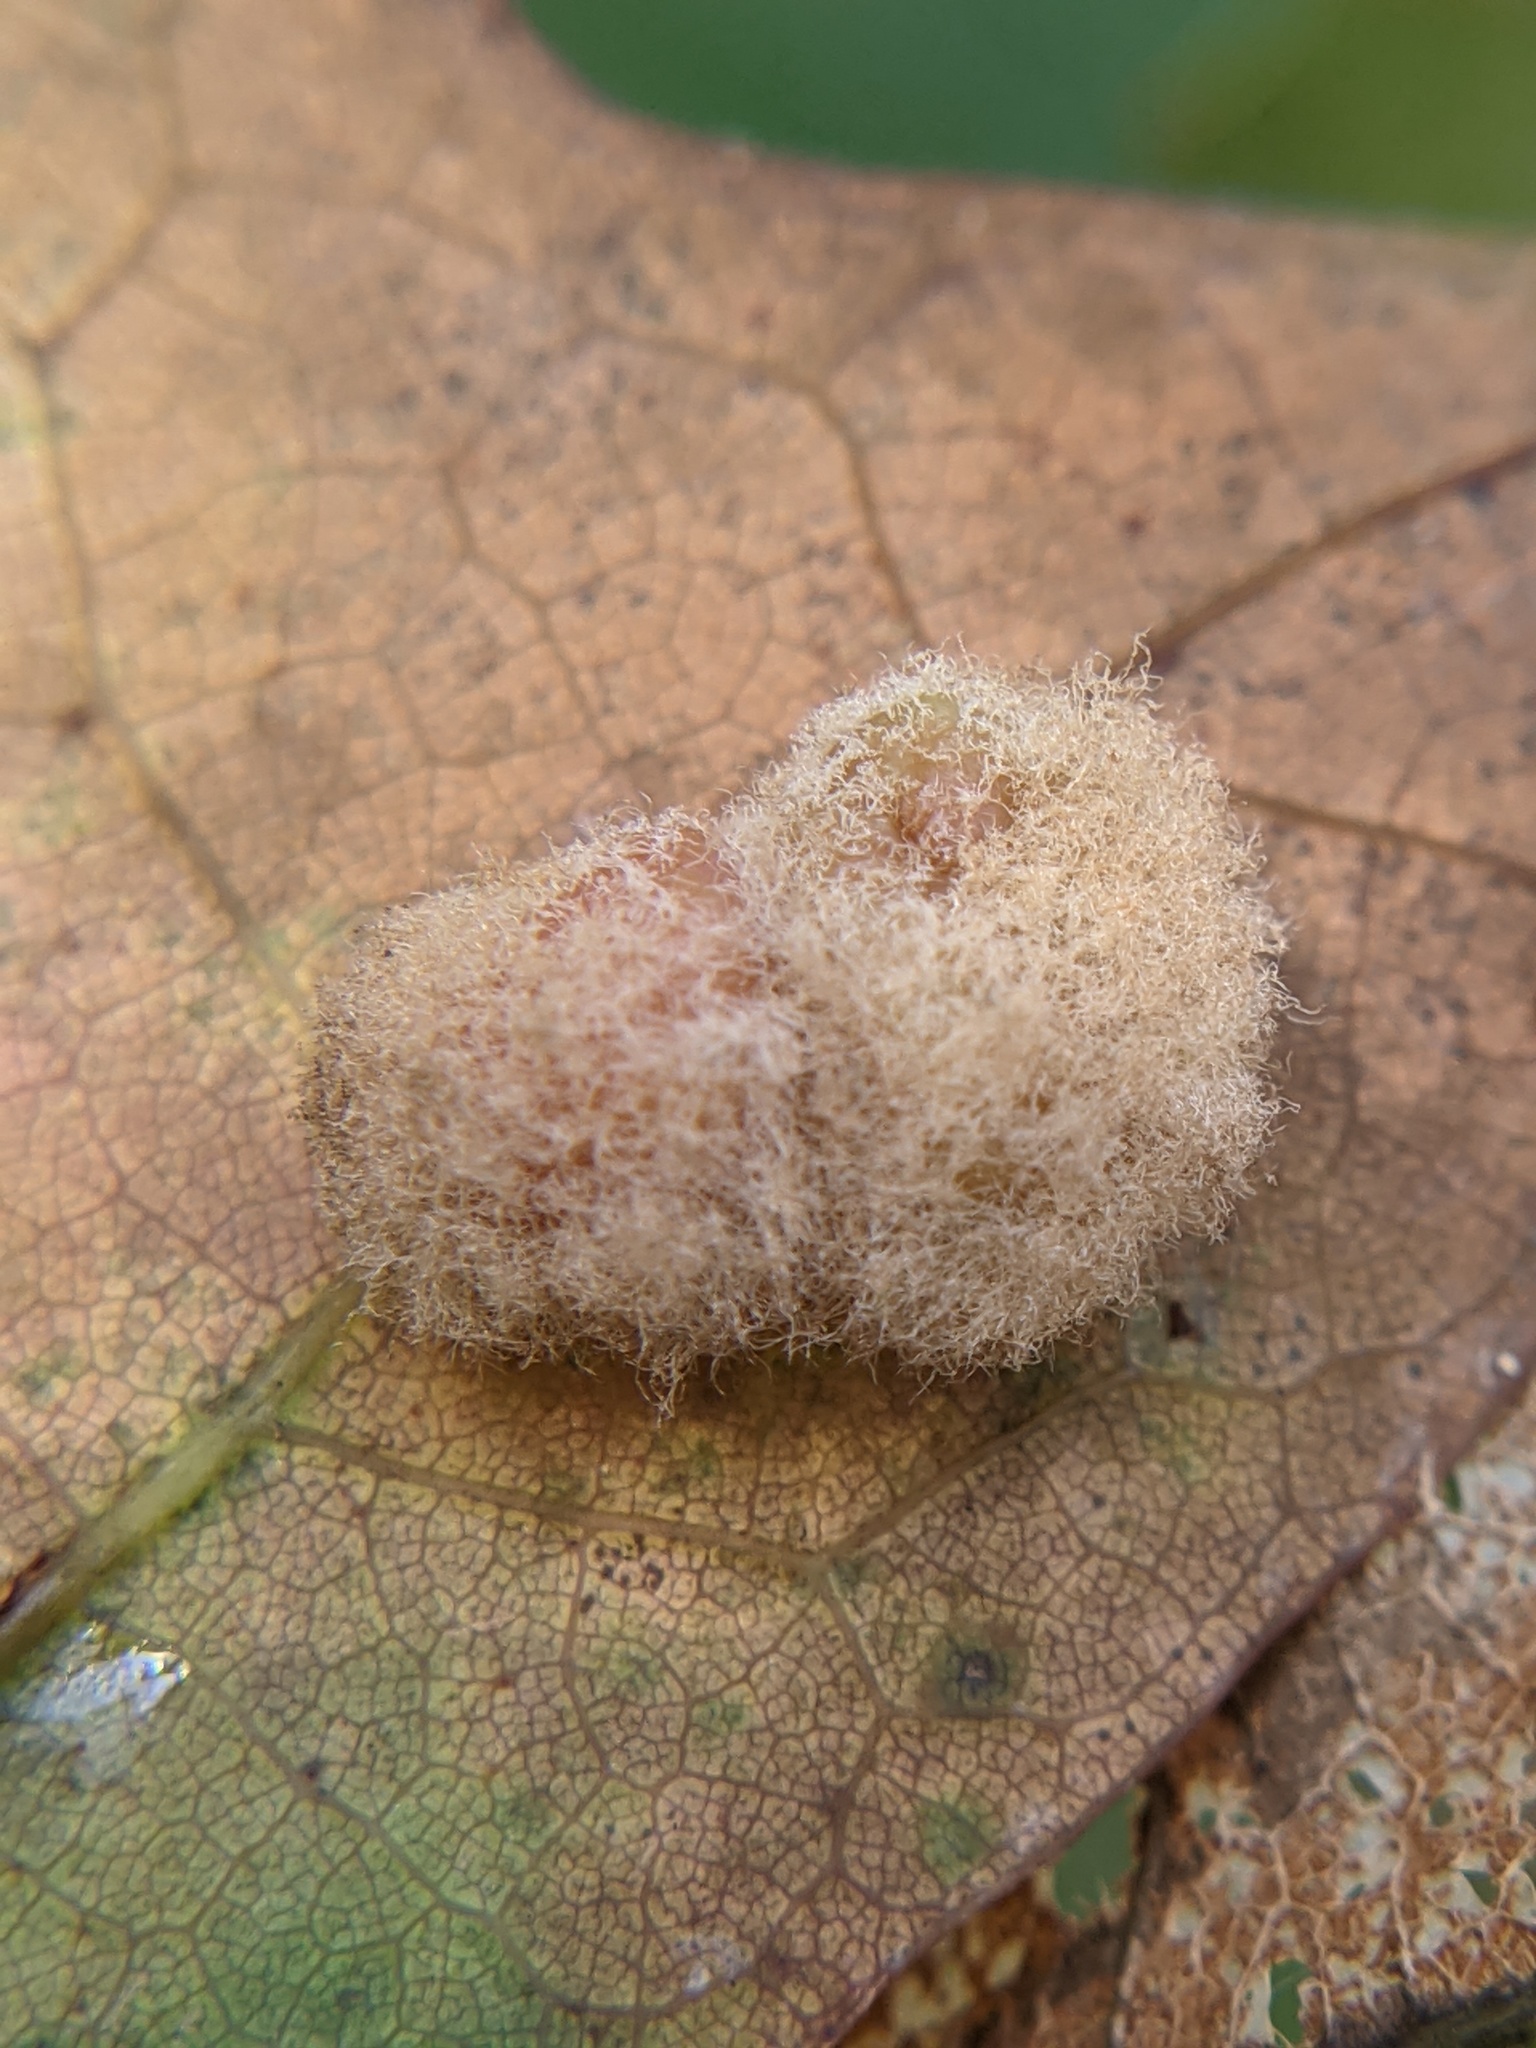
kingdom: Animalia
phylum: Arthropoda
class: Insecta
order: Hymenoptera
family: Cynipidae
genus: Callirhytis
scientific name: Callirhytis
